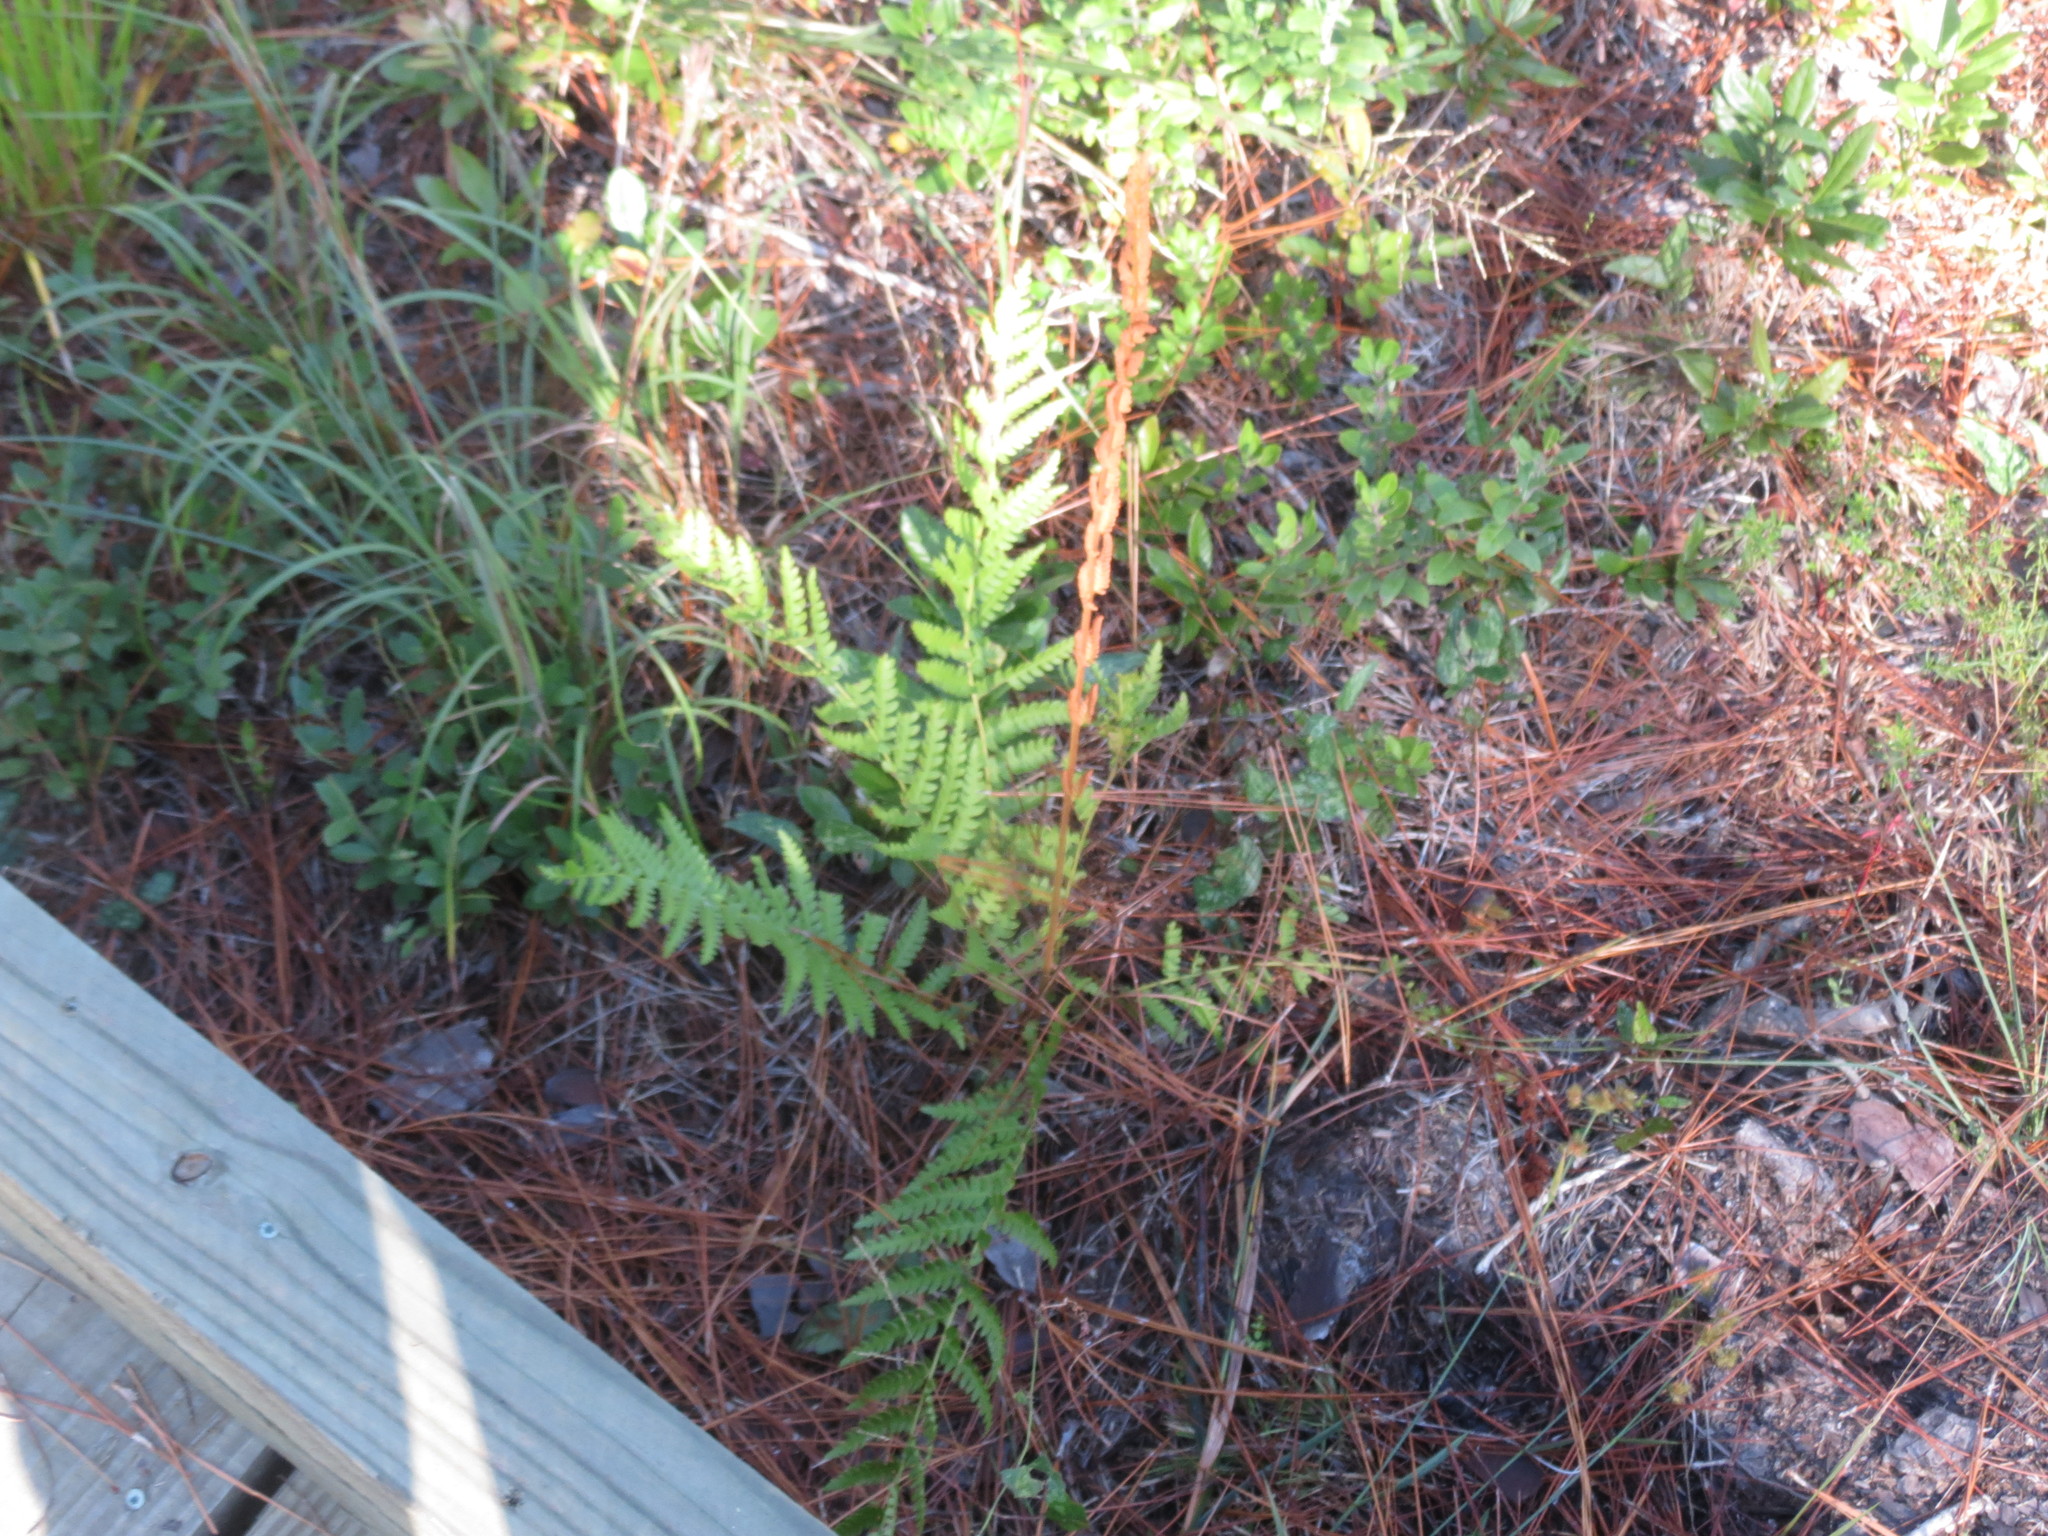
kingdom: Plantae
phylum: Tracheophyta
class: Polypodiopsida
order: Osmundales
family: Osmundaceae
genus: Osmundastrum
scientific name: Osmundastrum cinnamomeum
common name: Cinnamon fern
